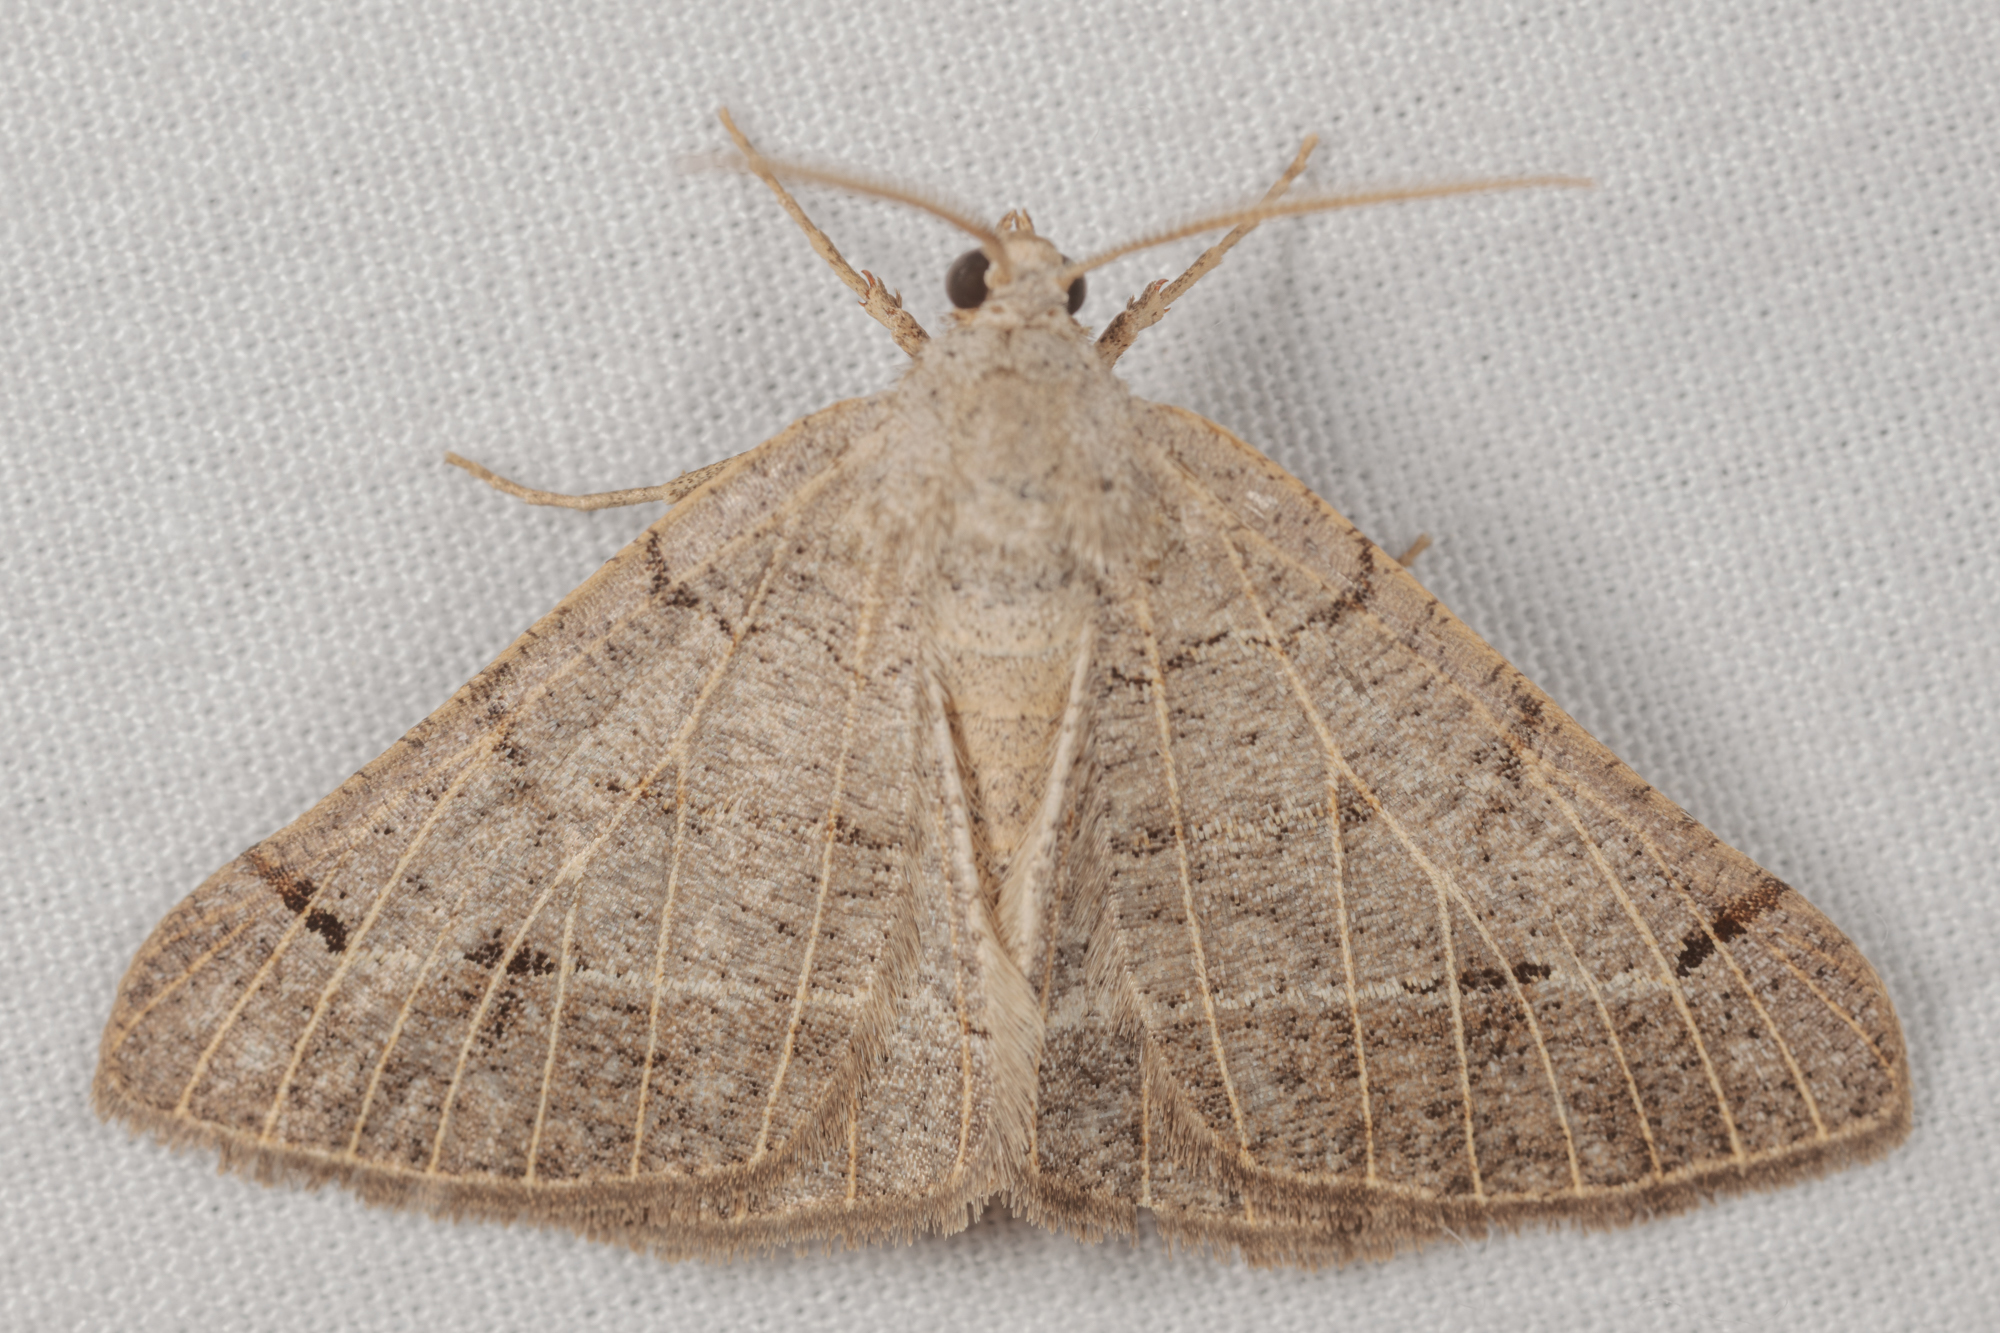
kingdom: Animalia
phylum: Arthropoda
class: Insecta
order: Lepidoptera
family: Geometridae
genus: Isturgia
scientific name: Isturgia dislocaria
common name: Pale-viened enconista
